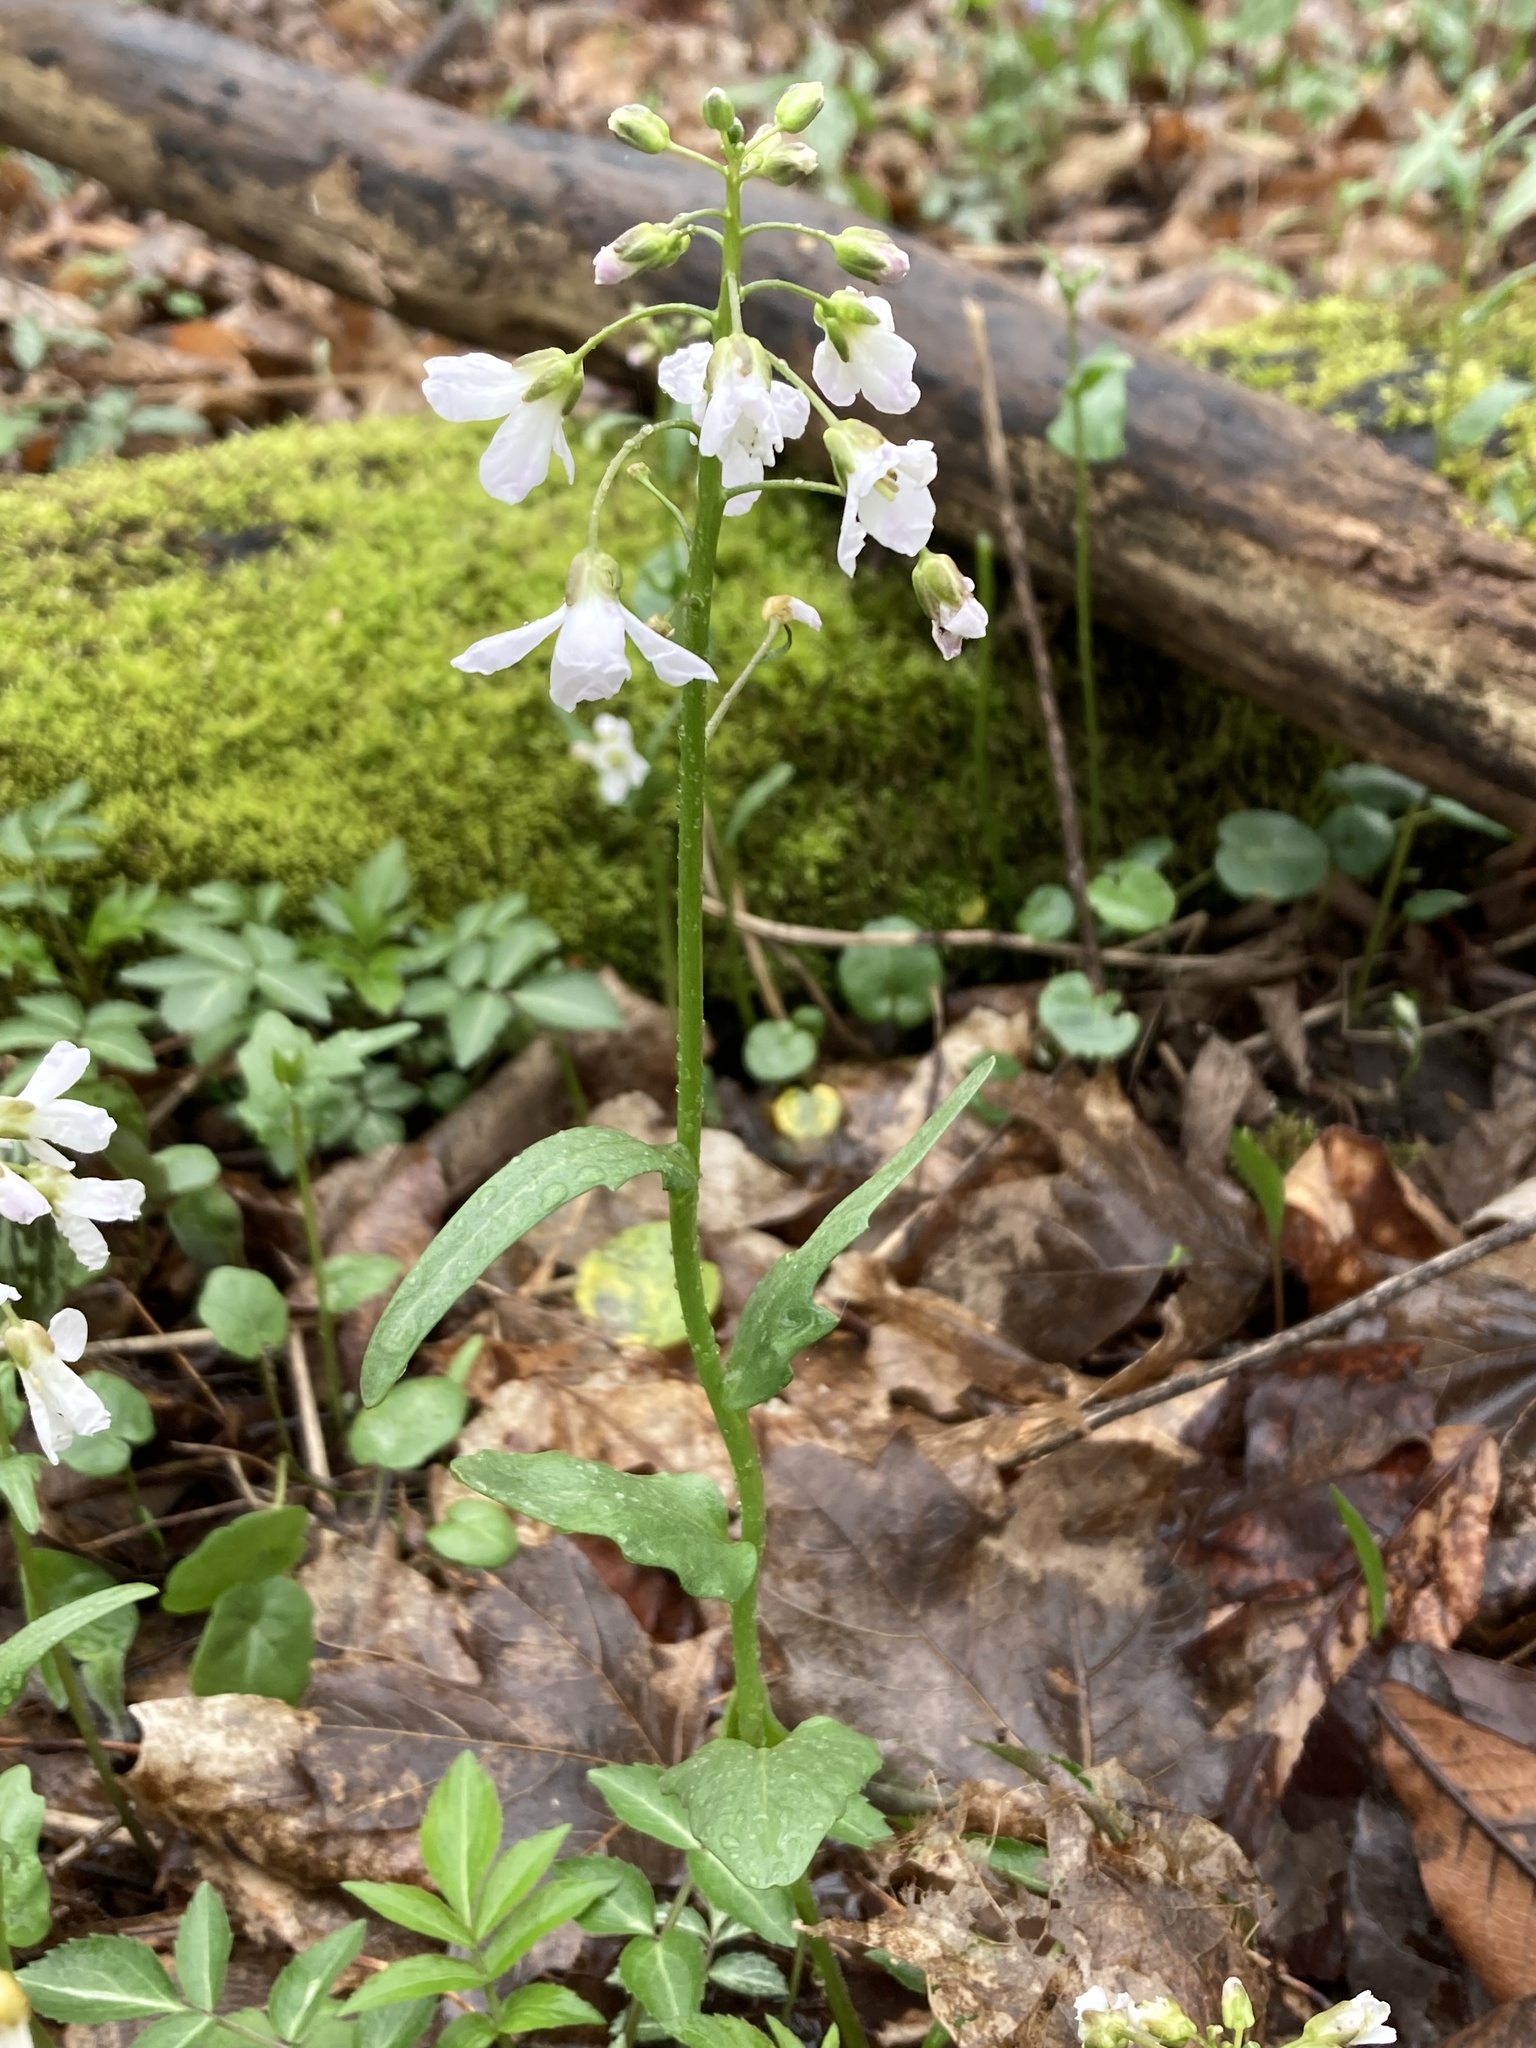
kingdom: Plantae
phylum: Tracheophyta
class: Magnoliopsida
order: Brassicales
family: Brassicaceae
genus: Cardamine
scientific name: Cardamine douglassii
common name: Purple cress
